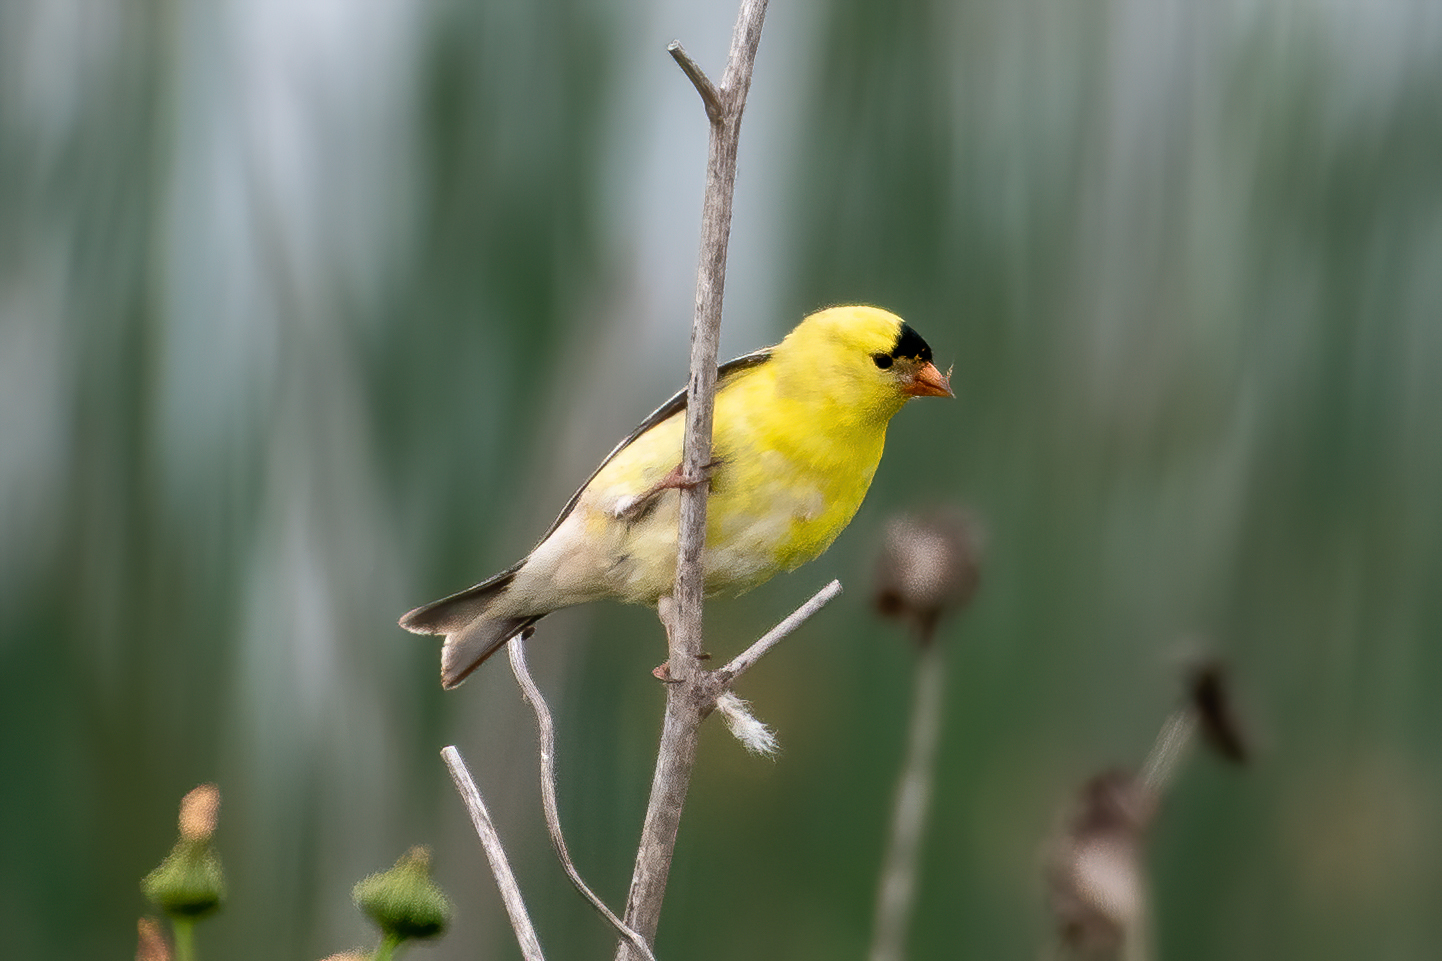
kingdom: Animalia
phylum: Chordata
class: Aves
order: Passeriformes
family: Fringillidae
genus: Spinus
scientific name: Spinus tristis
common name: American goldfinch
